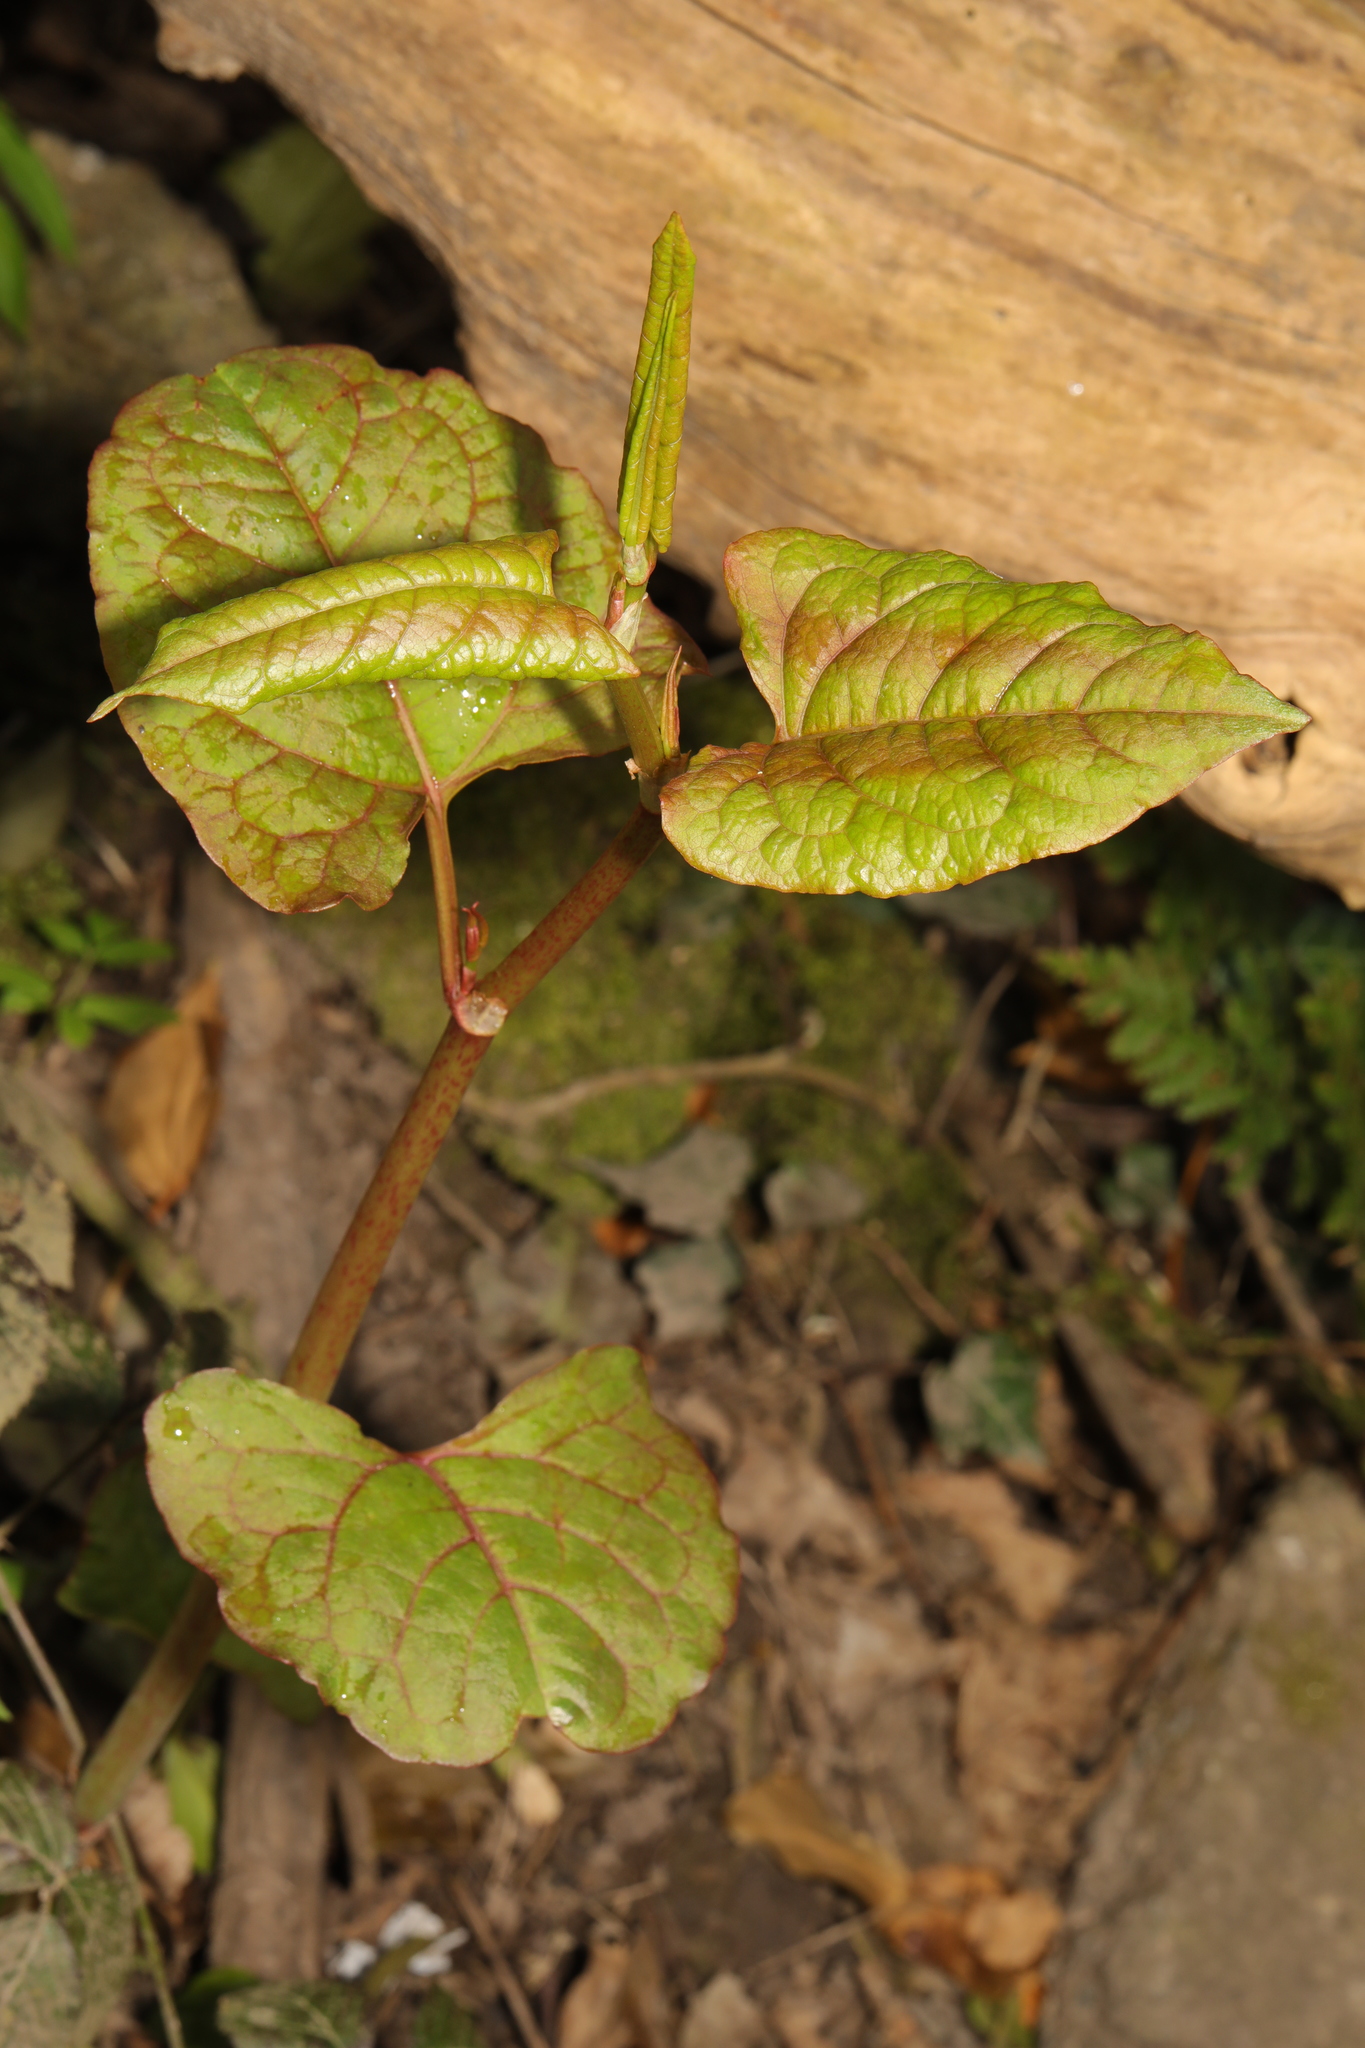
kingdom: Plantae
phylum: Tracheophyta
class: Magnoliopsida
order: Caryophyllales
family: Polygonaceae
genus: Reynoutria
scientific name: Reynoutria bohemica
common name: Bohemian knotweed
